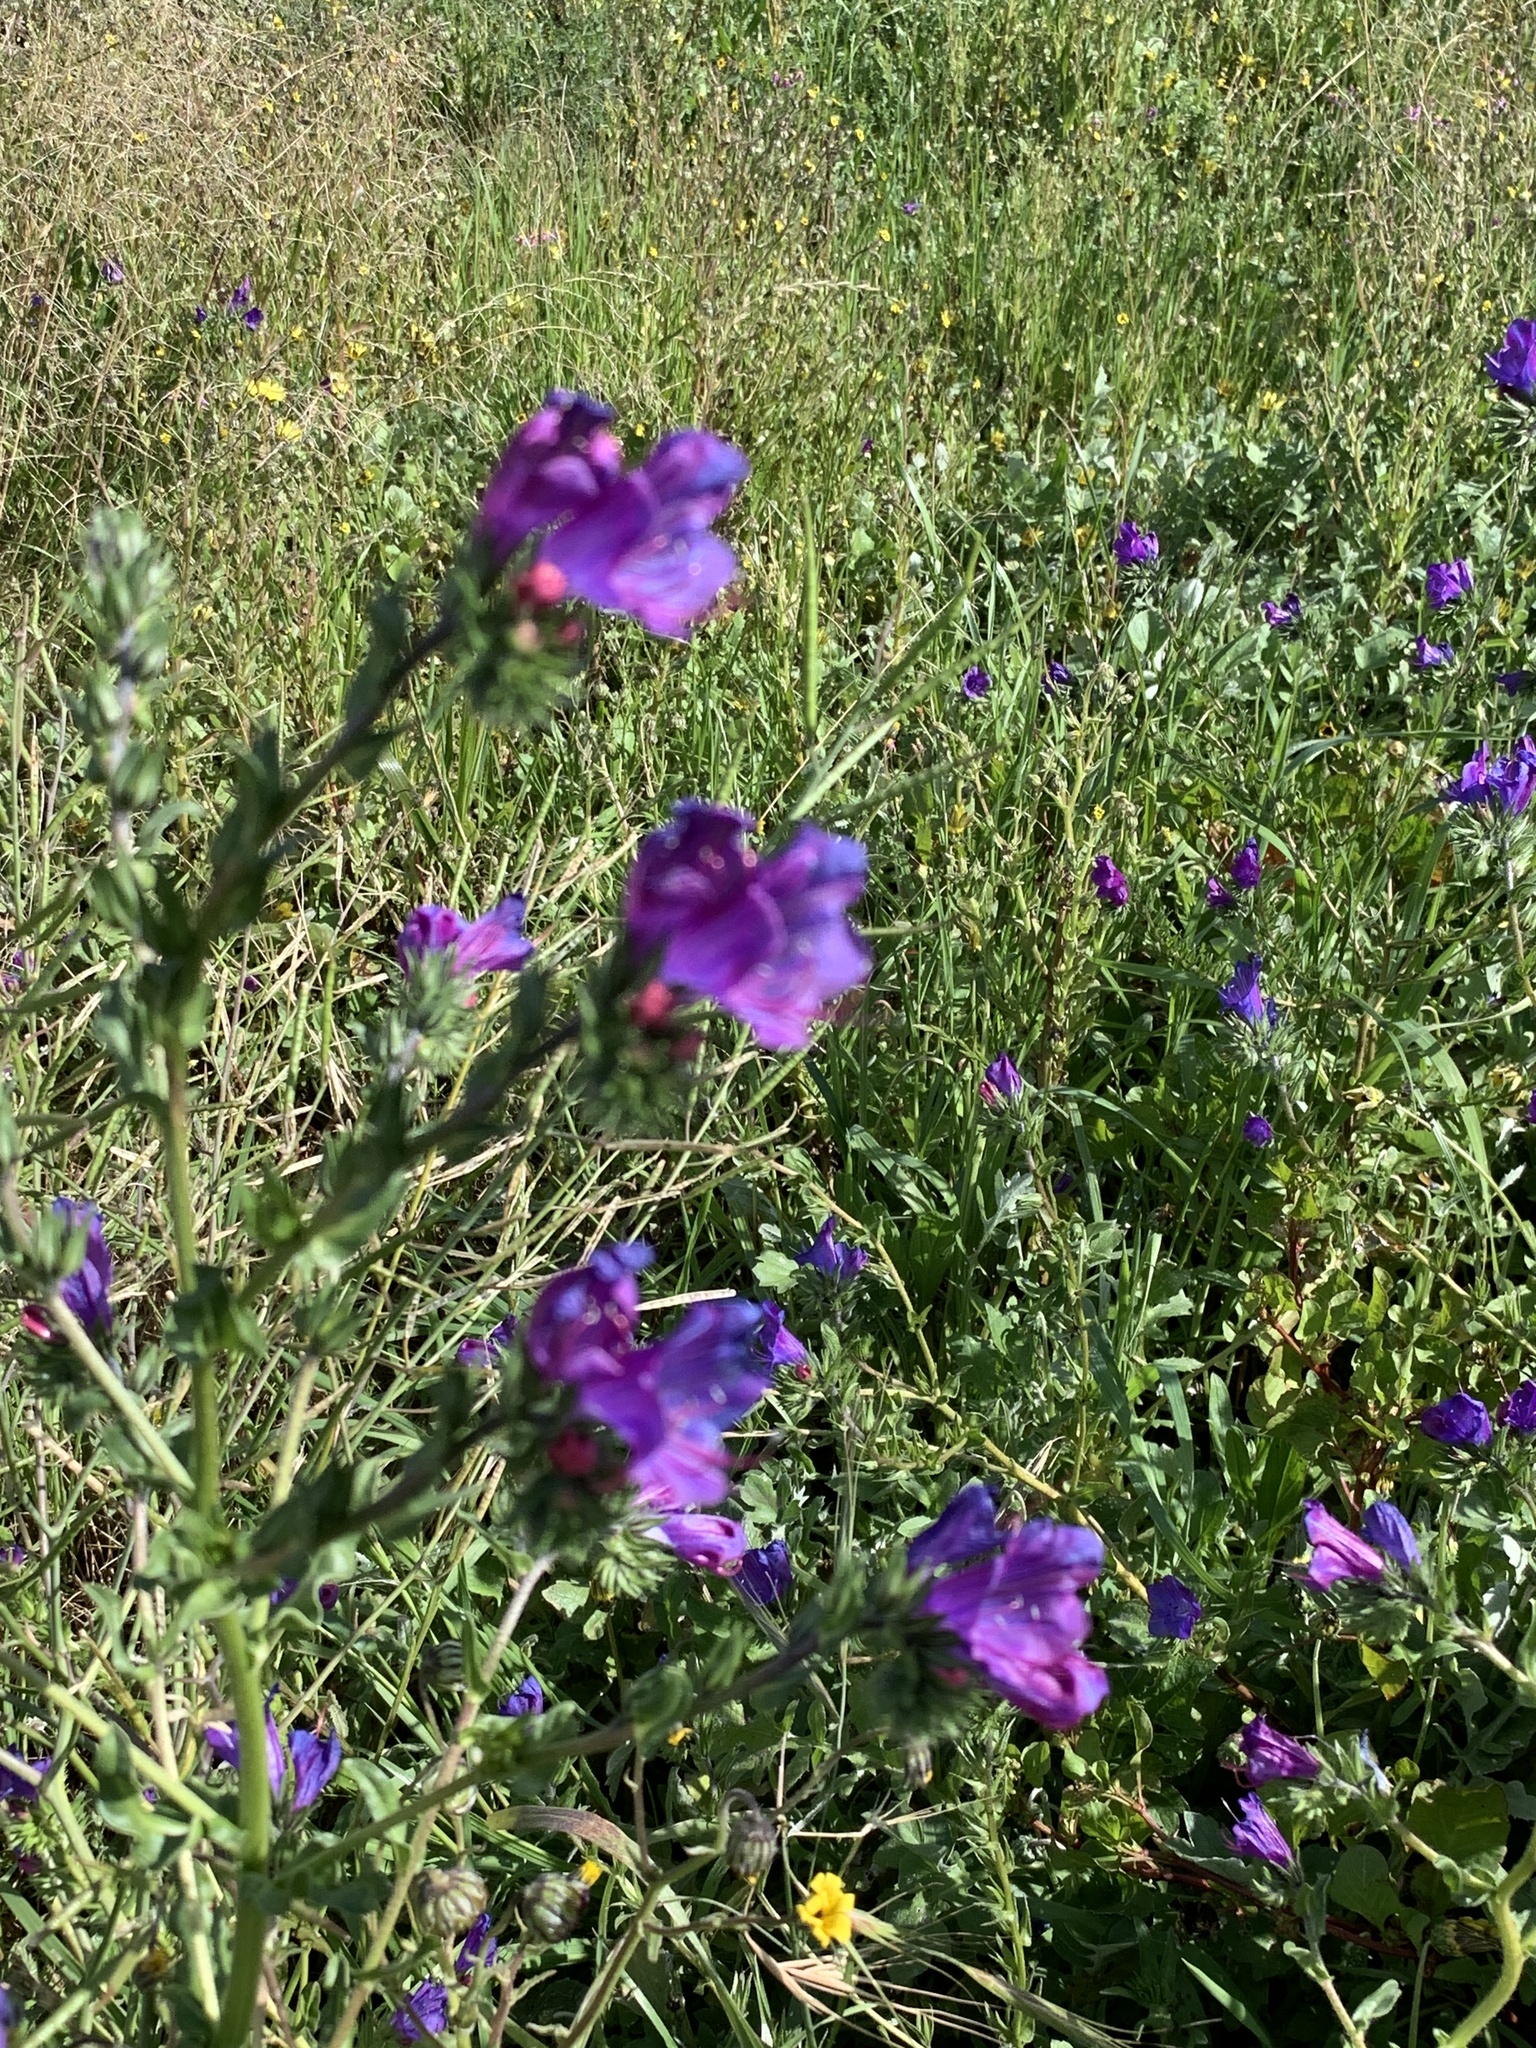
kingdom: Plantae
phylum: Tracheophyta
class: Magnoliopsida
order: Boraginales
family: Boraginaceae
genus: Echium
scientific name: Echium plantagineum
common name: Purple viper's-bugloss
